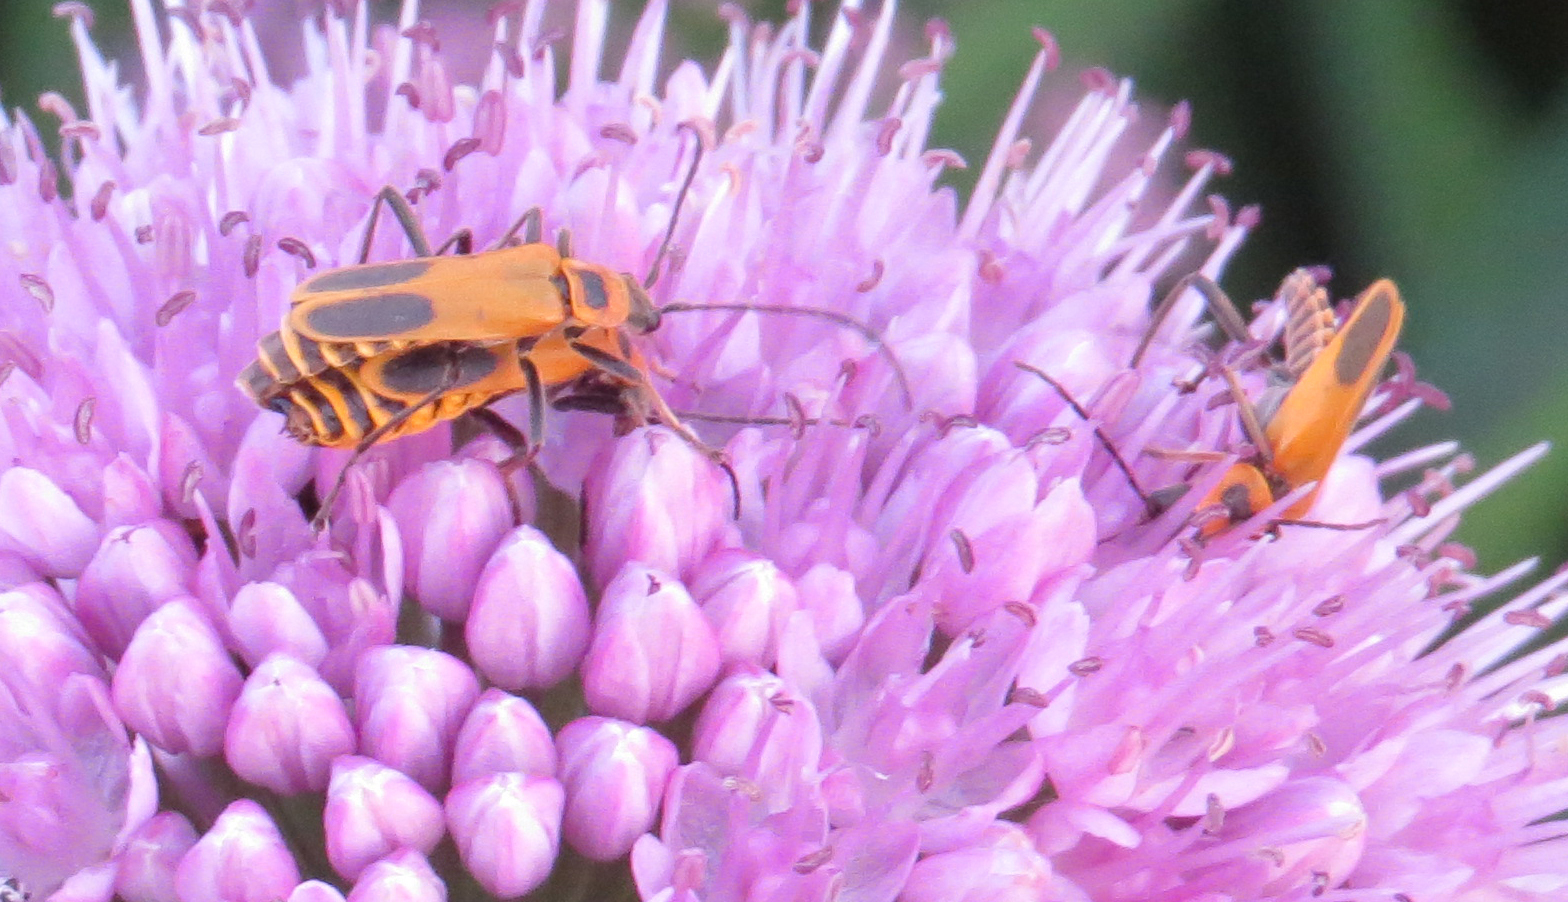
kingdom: Animalia
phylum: Arthropoda
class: Insecta
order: Coleoptera
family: Cantharidae
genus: Chauliognathus
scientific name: Chauliognathus pensylvanicus
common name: Goldenrod soldier beetle
